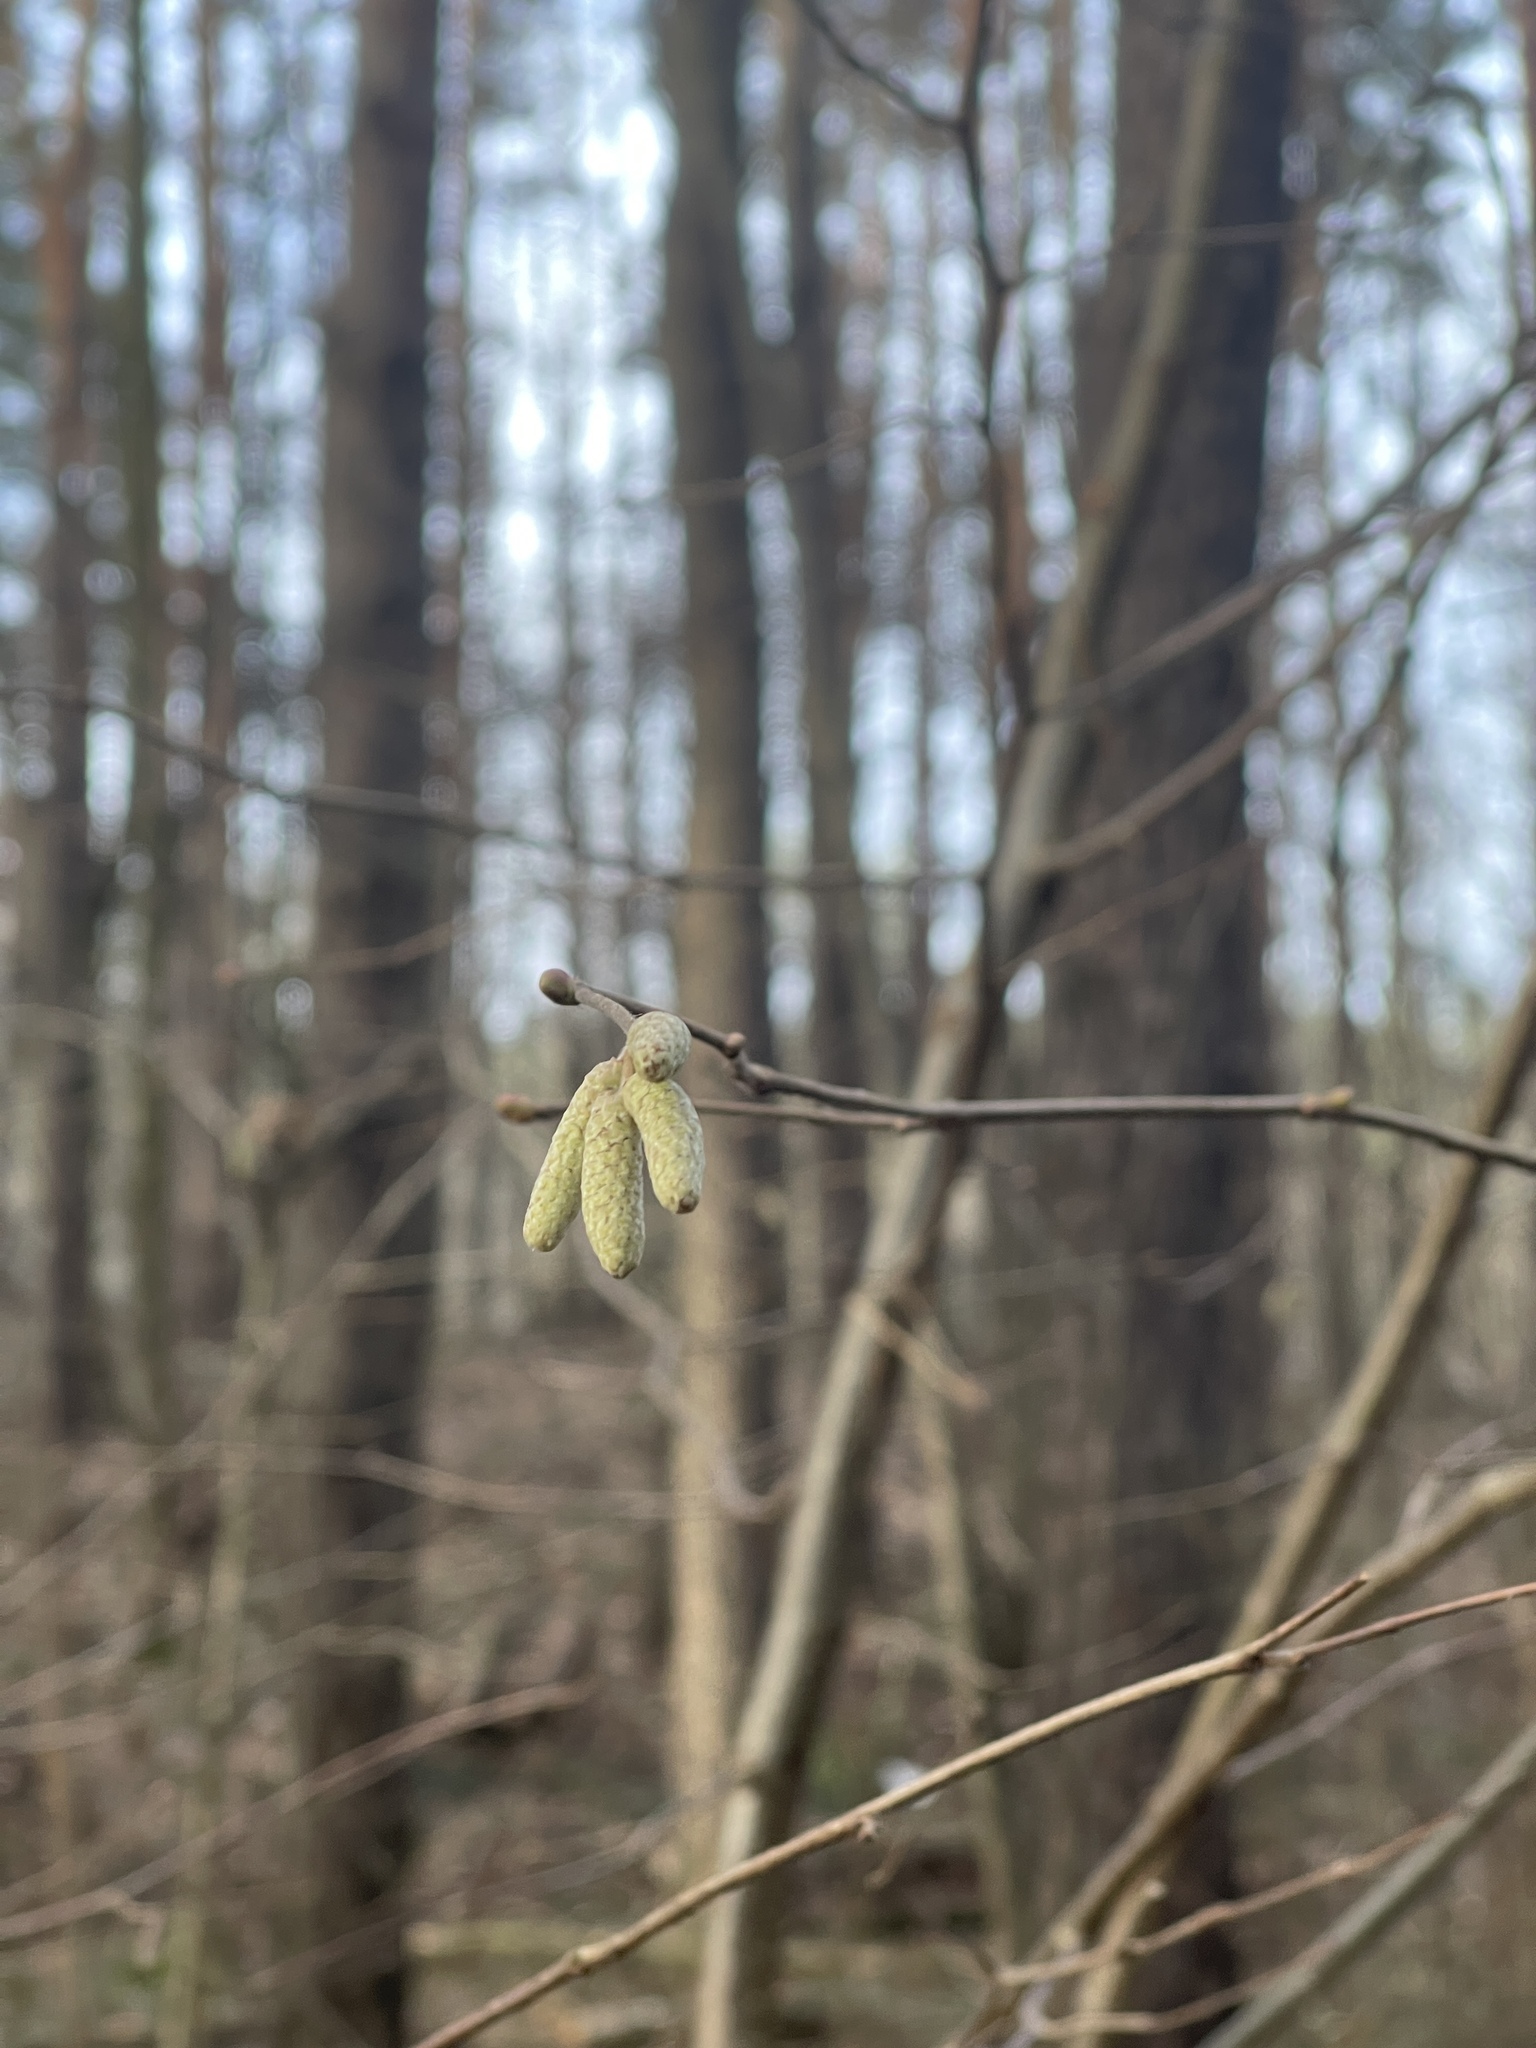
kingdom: Plantae
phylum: Tracheophyta
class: Magnoliopsida
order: Fagales
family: Betulaceae
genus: Corylus
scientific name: Corylus avellana
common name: European hazel
